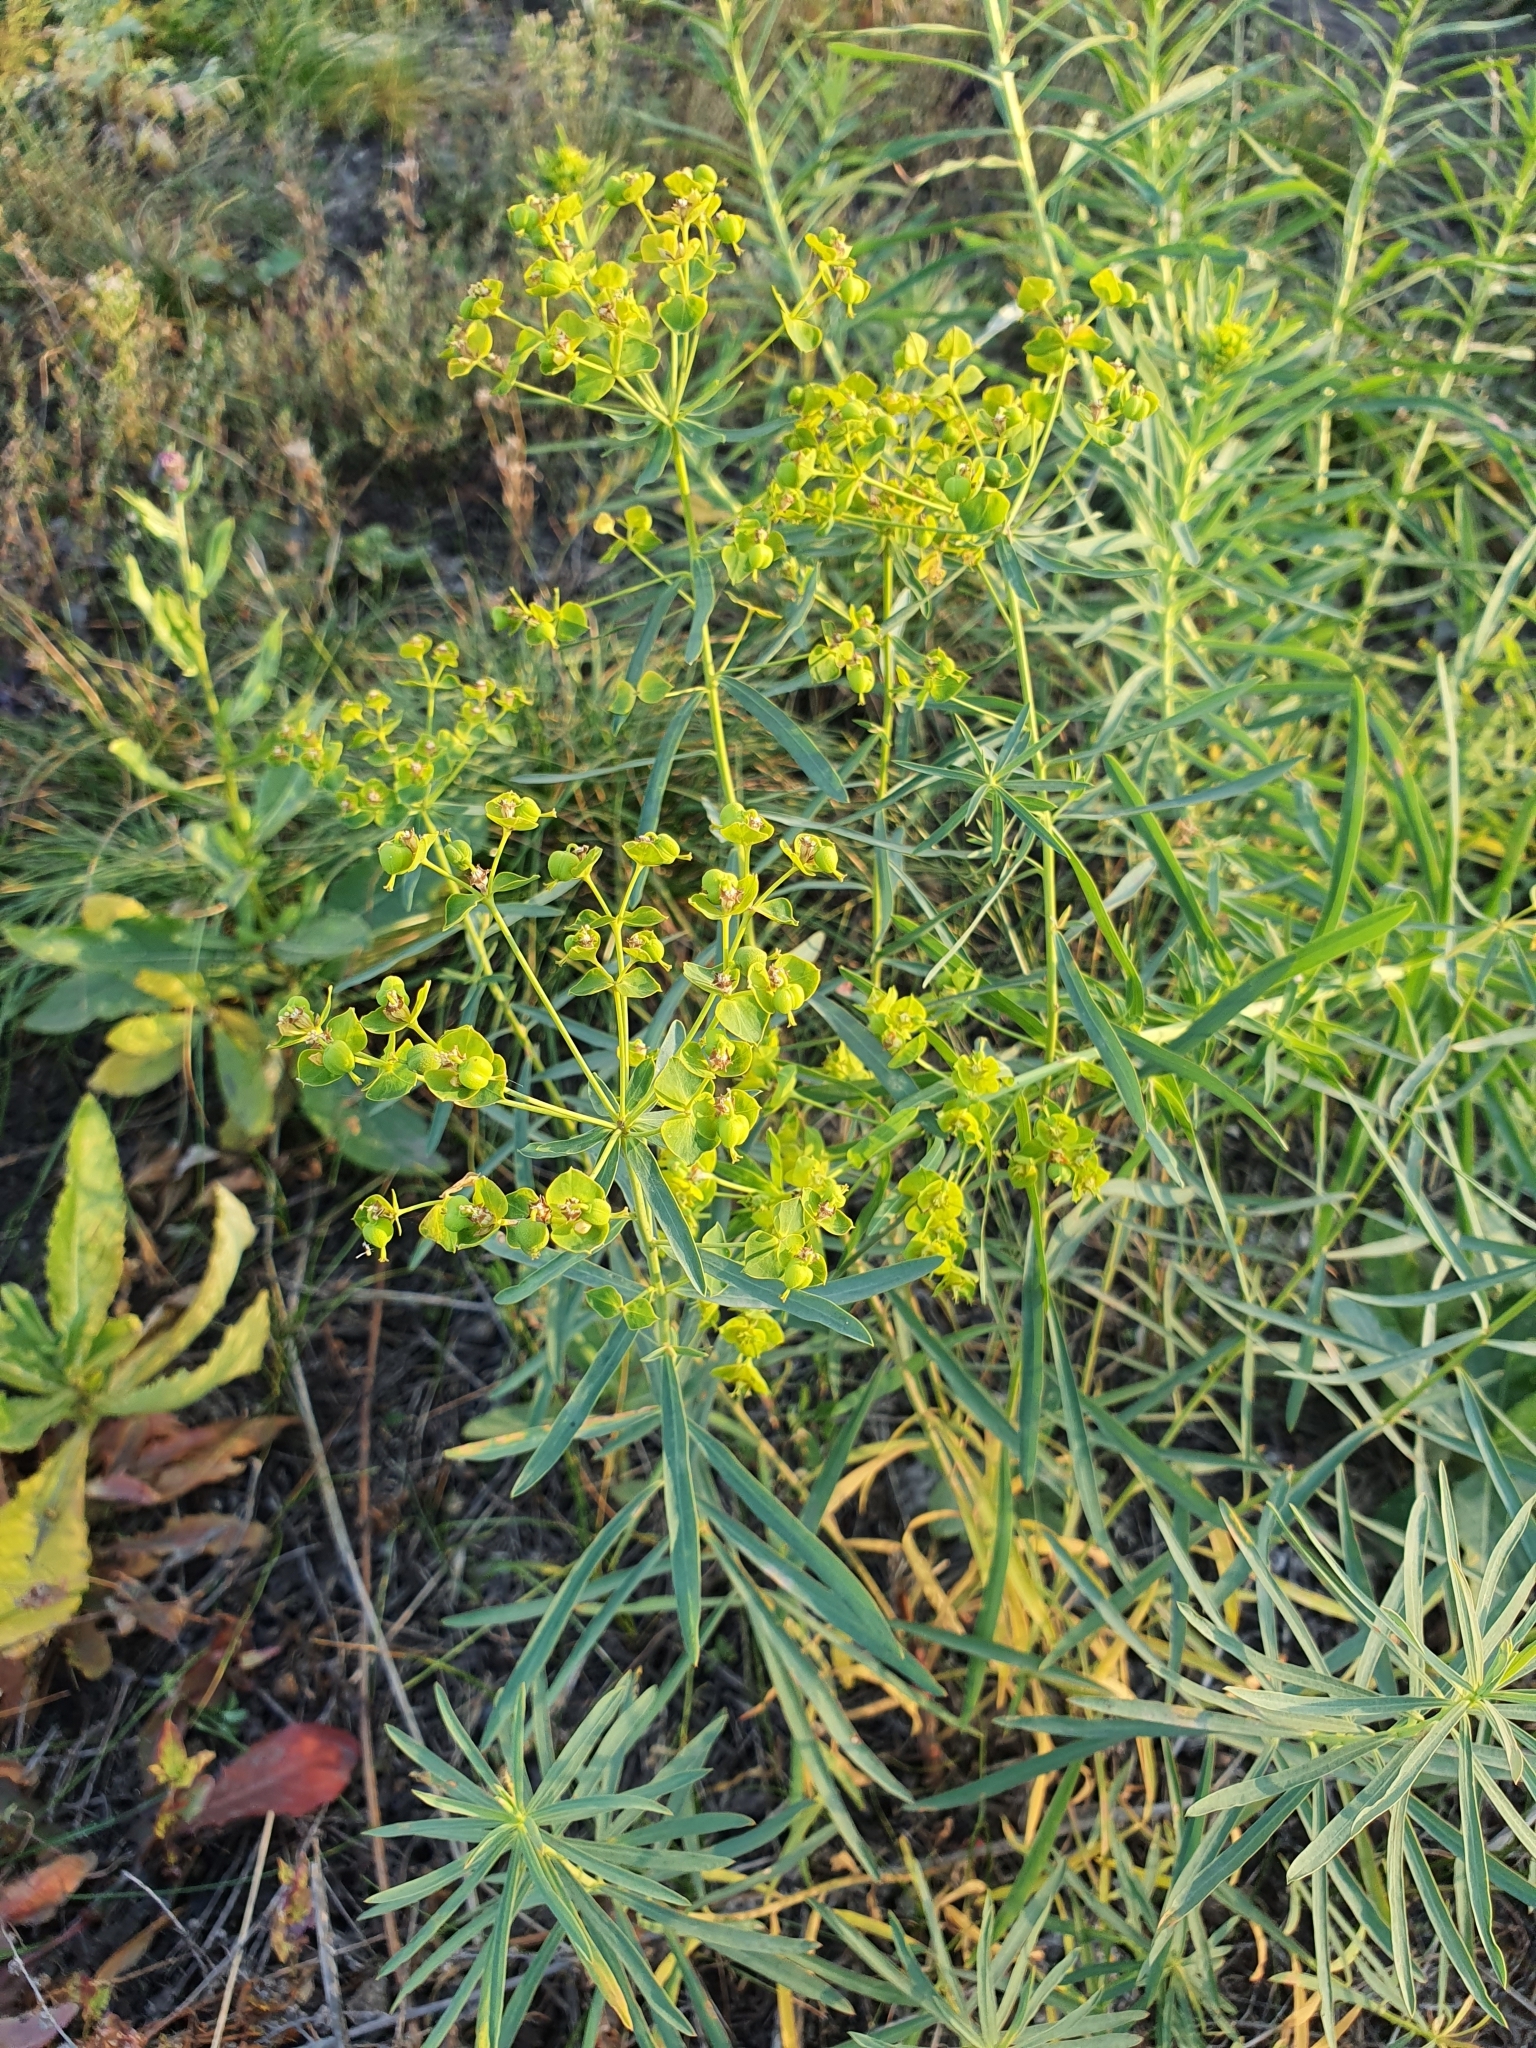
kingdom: Plantae
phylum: Tracheophyta
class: Magnoliopsida
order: Malpighiales
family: Euphorbiaceae
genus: Euphorbia
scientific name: Euphorbia virgata
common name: Leafy spurge
